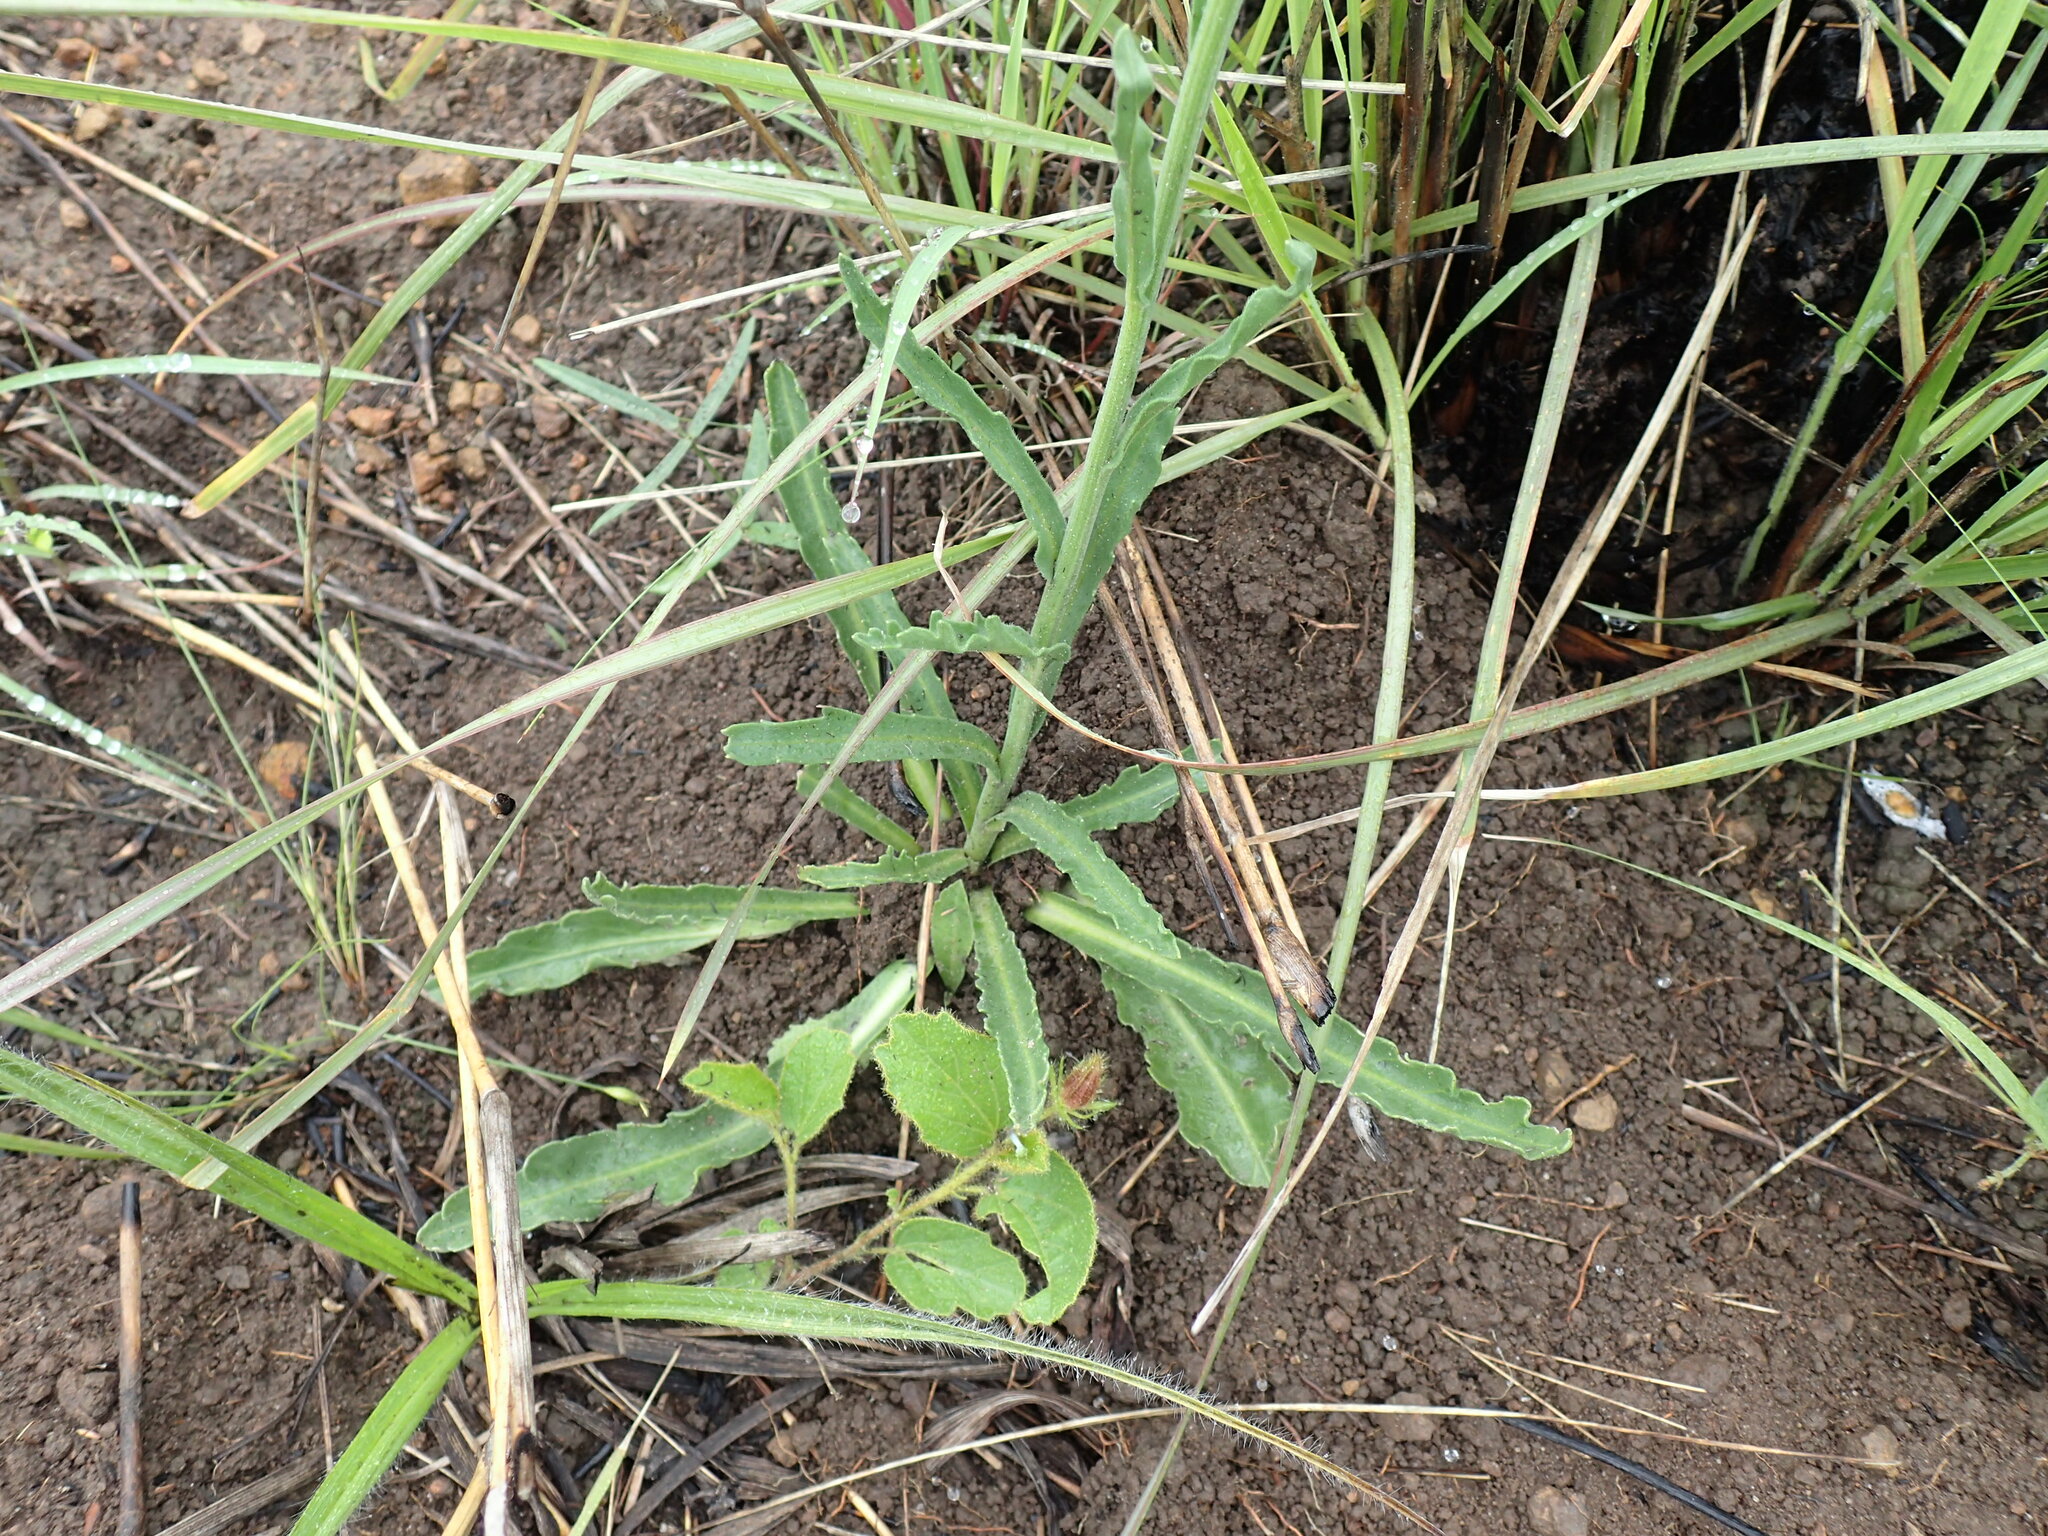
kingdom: Plantae
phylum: Tracheophyta
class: Magnoliopsida
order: Asterales
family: Asteraceae
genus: Erigeron
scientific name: Erigeron primulifolius
